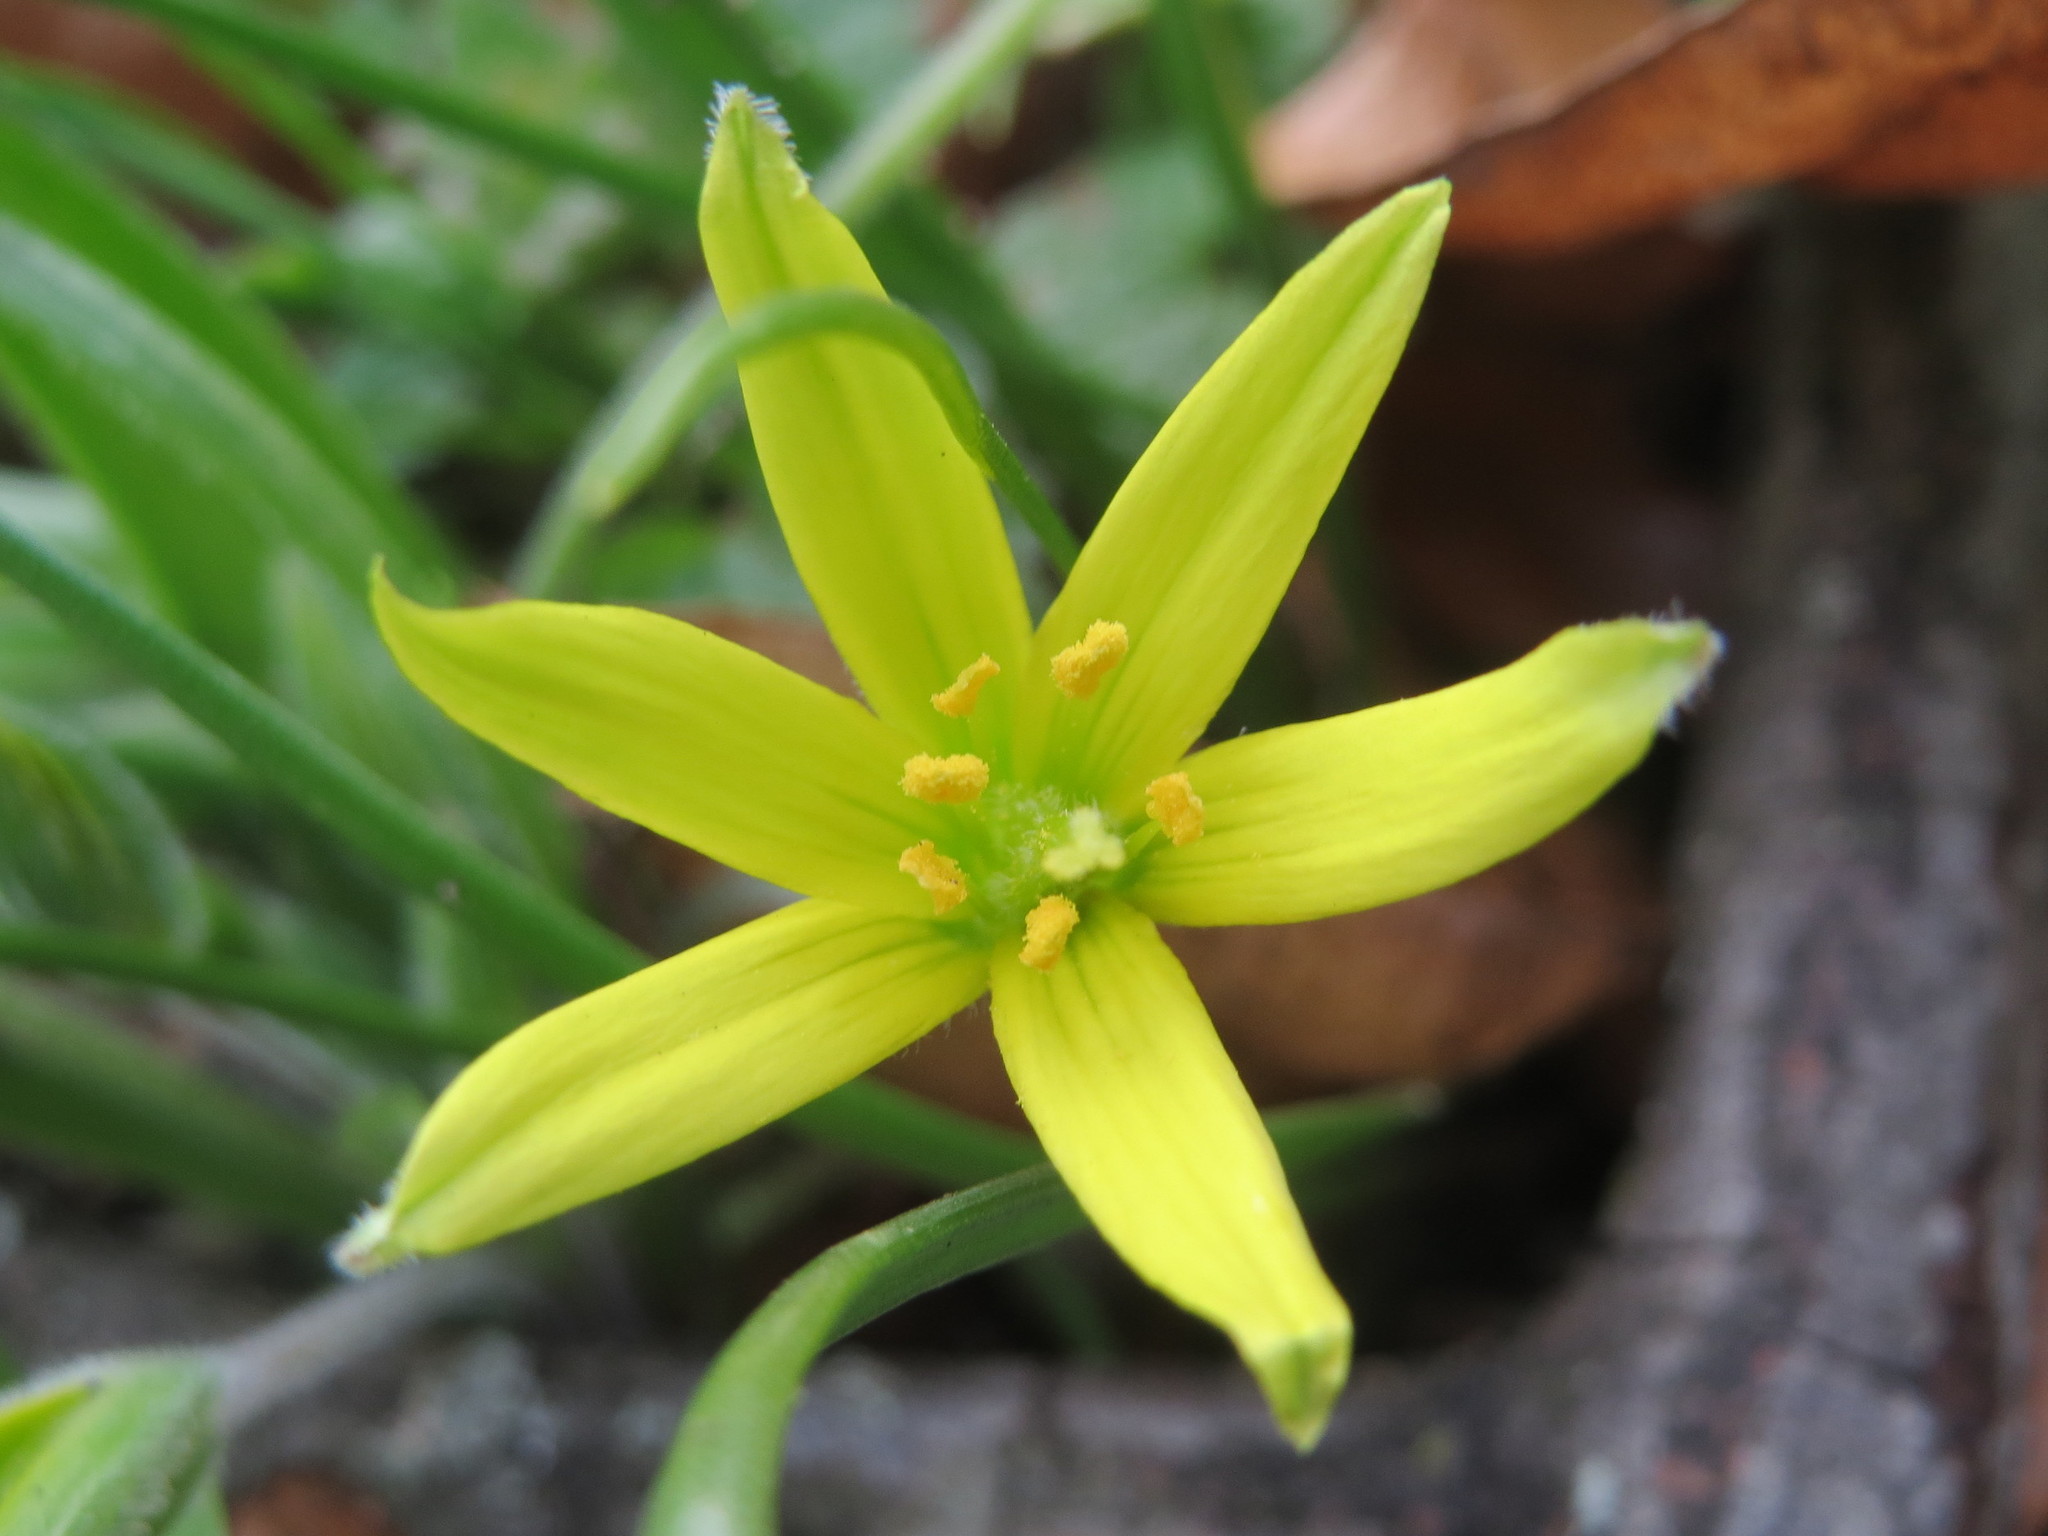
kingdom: Plantae
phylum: Tracheophyta
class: Liliopsida
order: Liliales
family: Liliaceae
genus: Gagea
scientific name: Gagea villosa
